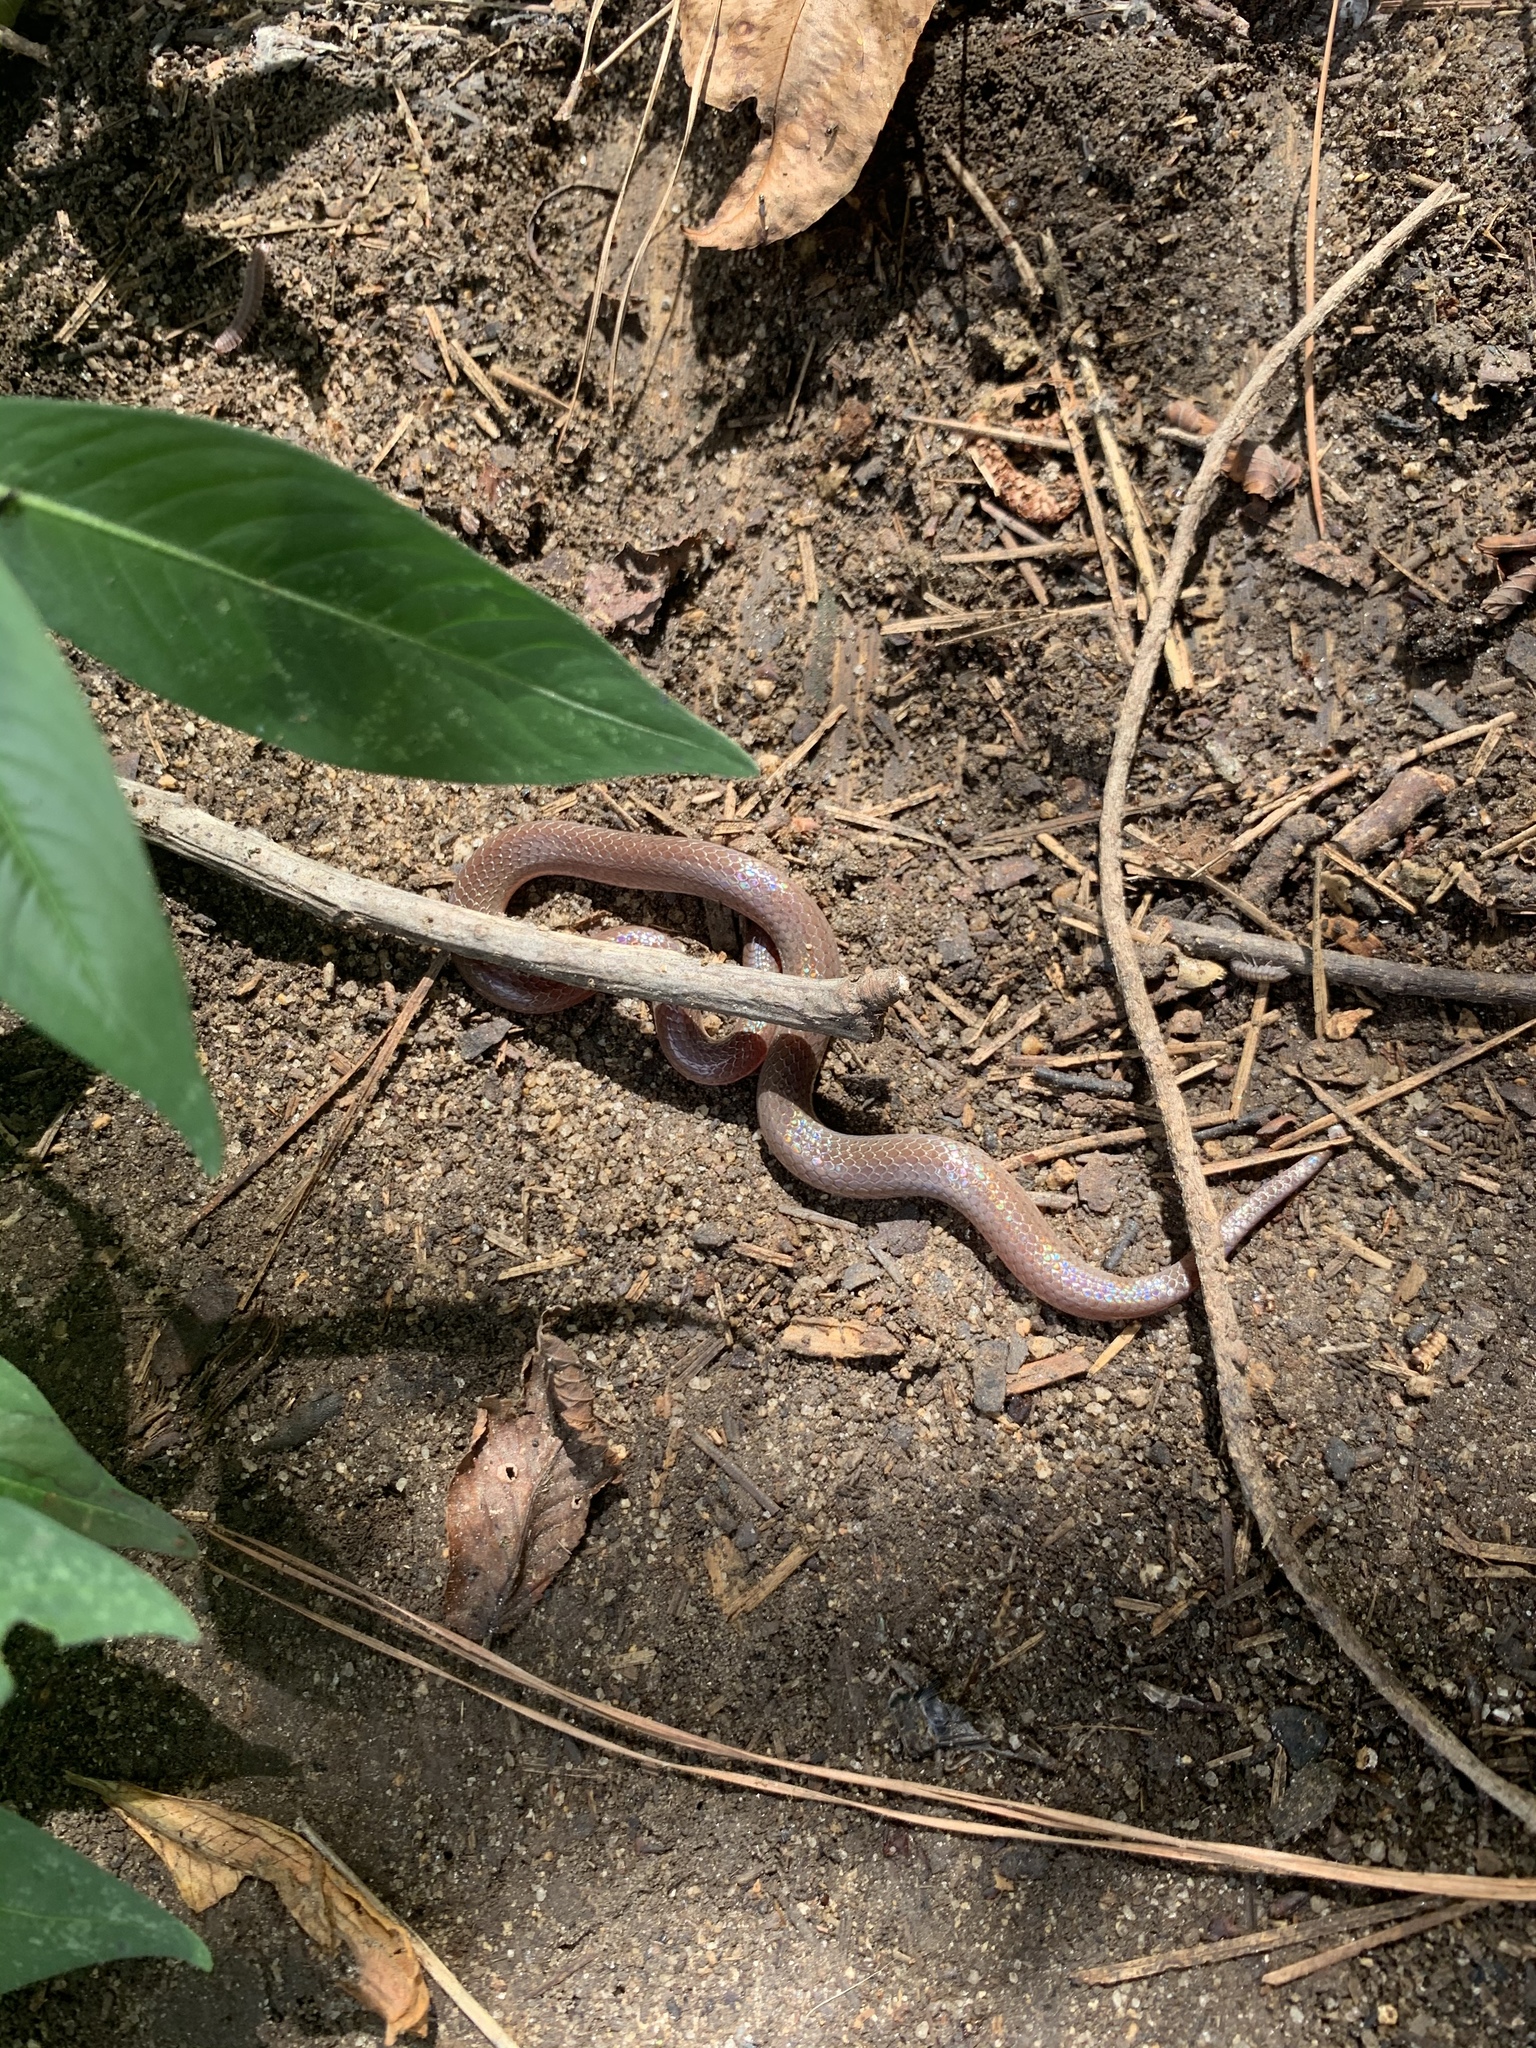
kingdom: Animalia
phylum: Chordata
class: Squamata
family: Colubridae
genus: Carphophis
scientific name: Carphophis amoenus
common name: Eastern worm snake
